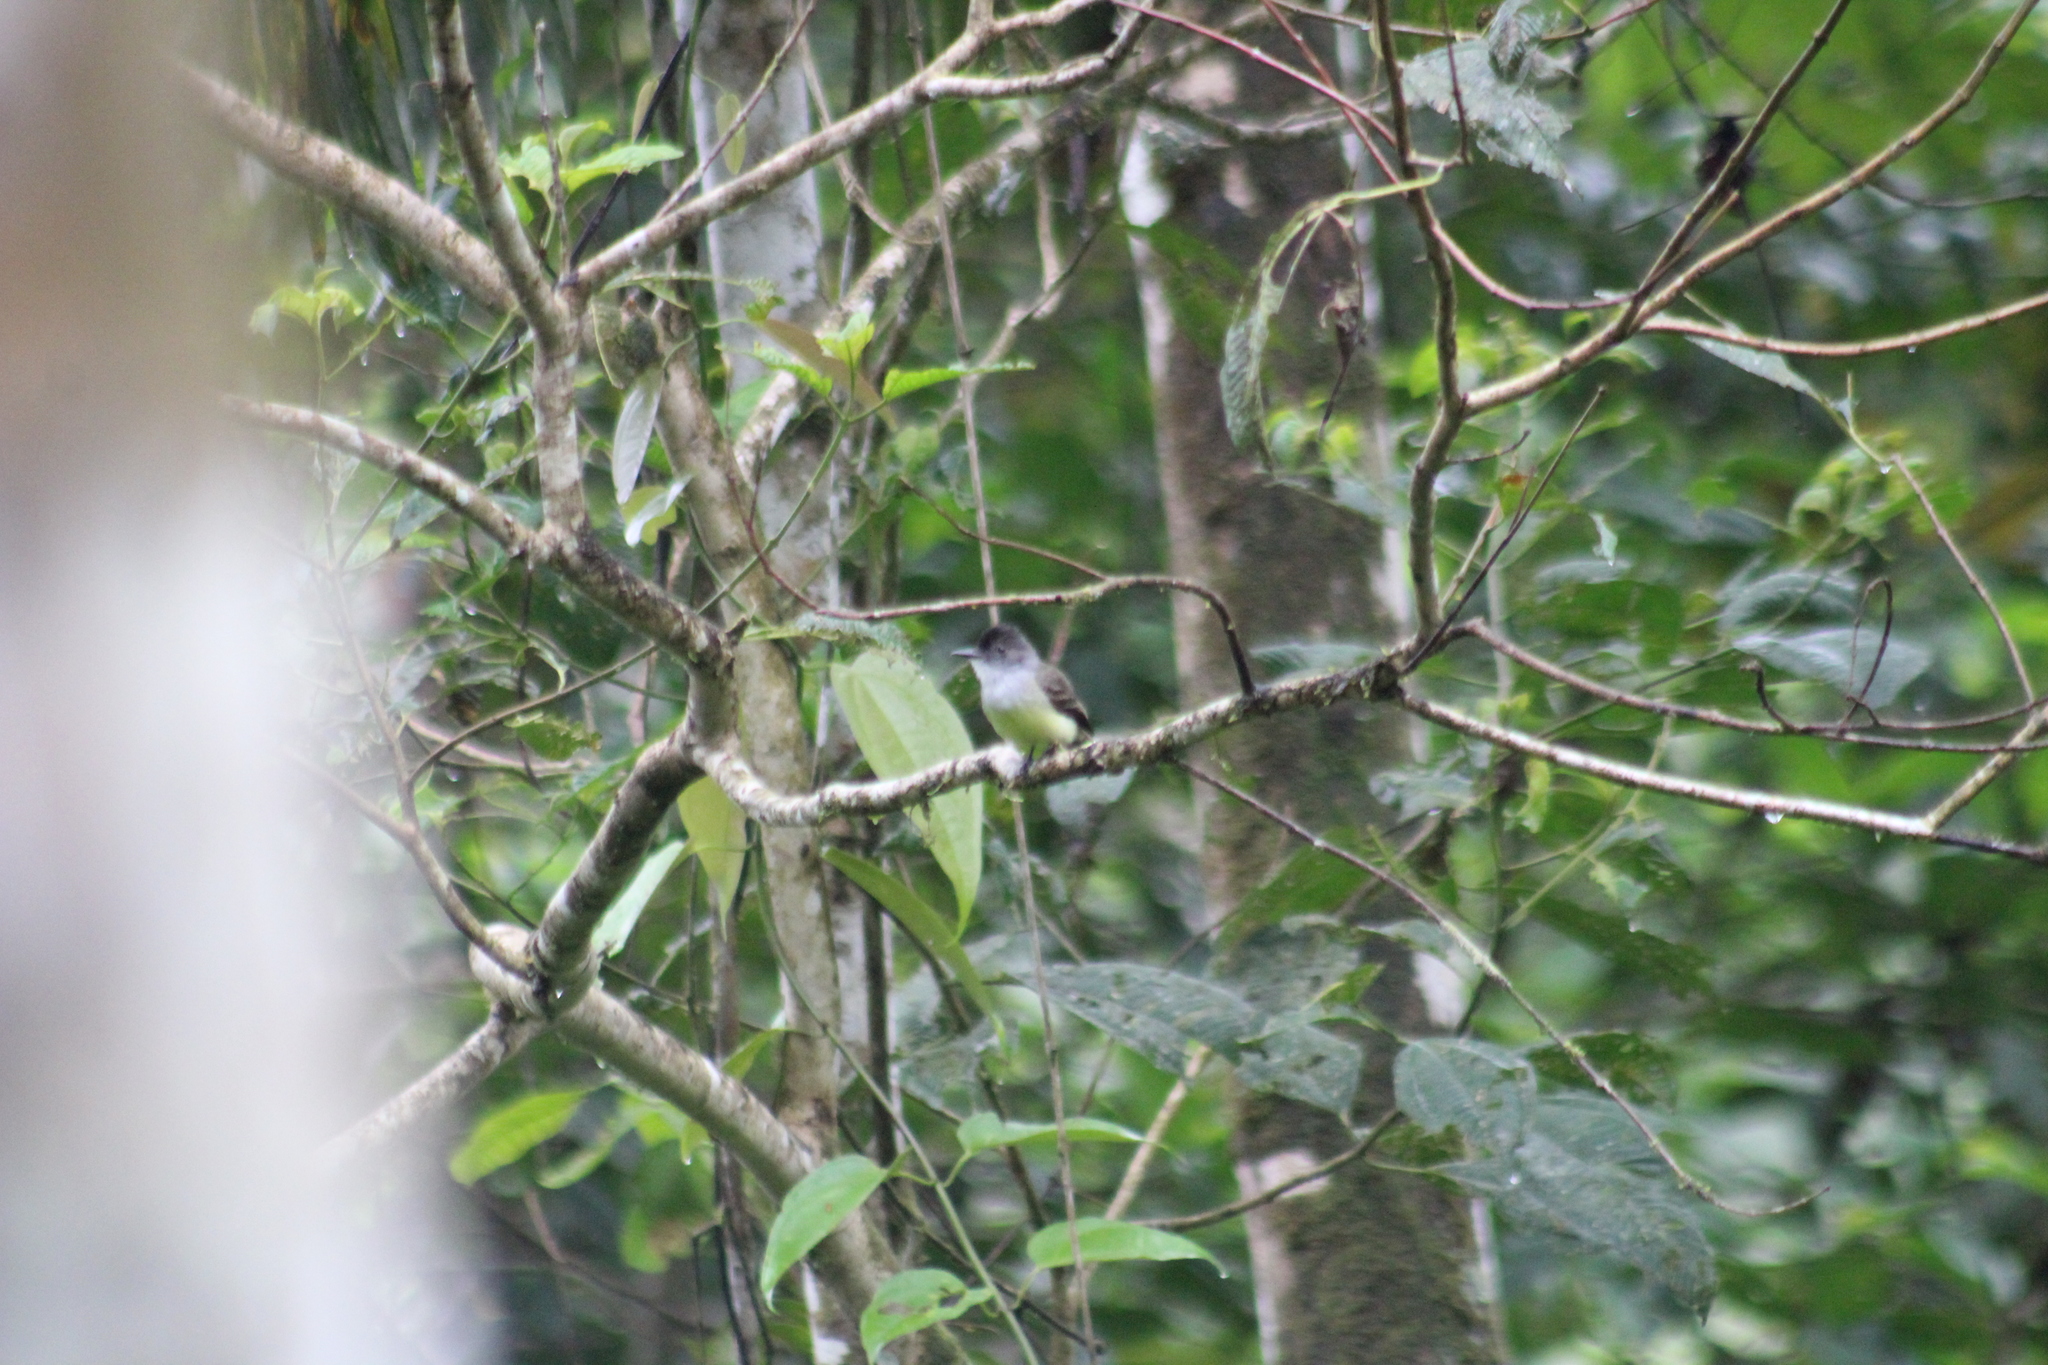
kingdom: Animalia
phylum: Chordata
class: Aves
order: Passeriformes
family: Tyrannidae
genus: Myiarchus
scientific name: Myiarchus tuberculifer
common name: Dusky-capped flycatcher
